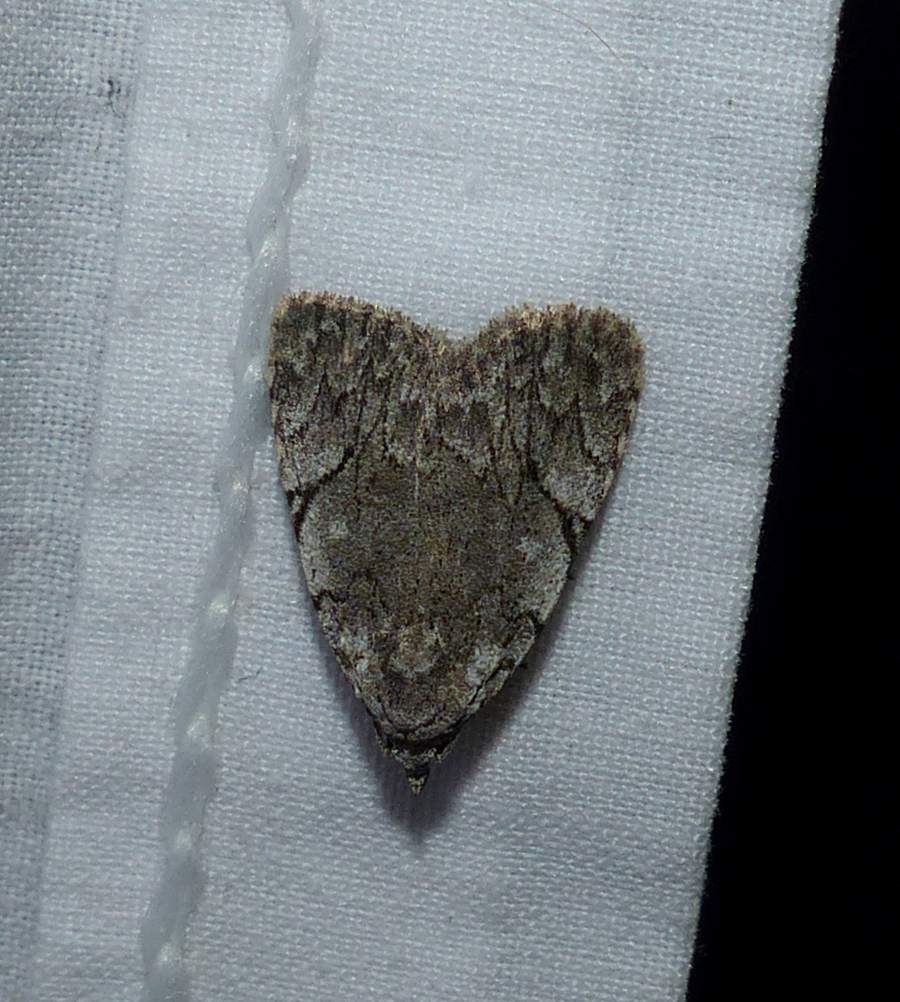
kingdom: Animalia
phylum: Arthropoda
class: Insecta
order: Lepidoptera
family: Noctuidae
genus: Balsa
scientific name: Balsa malana
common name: Many-dotted appleworm moth
